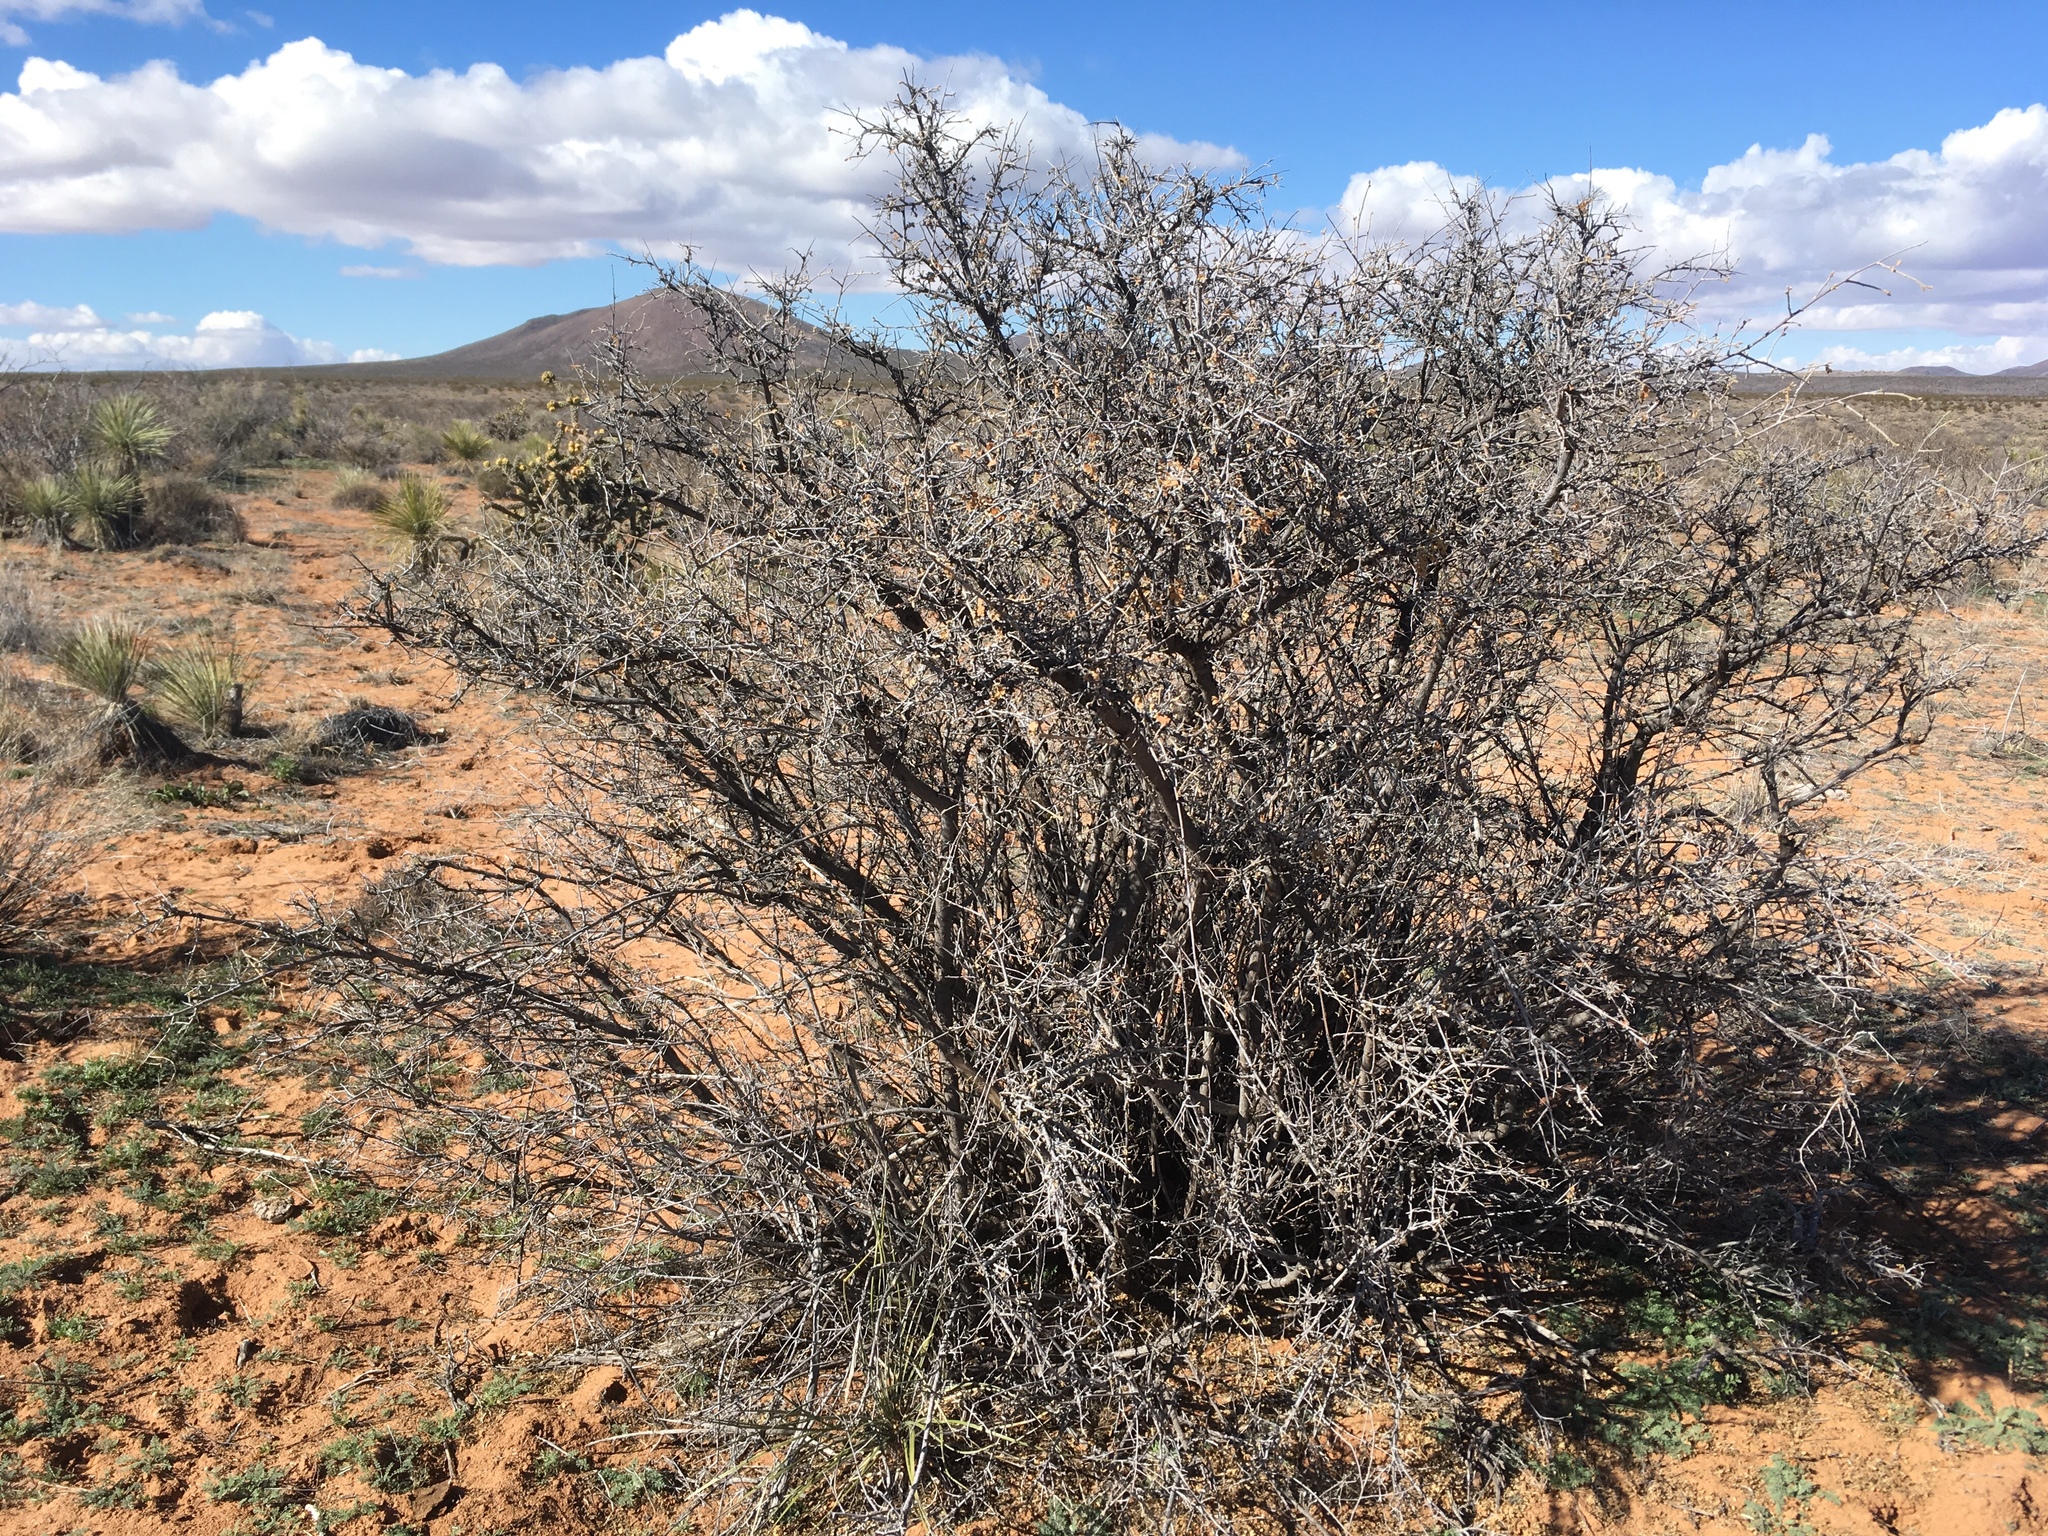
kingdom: Plantae
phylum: Tracheophyta
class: Magnoliopsida
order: Sapindales
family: Anacardiaceae
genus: Rhus
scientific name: Rhus microphylla
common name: Desert sumac
